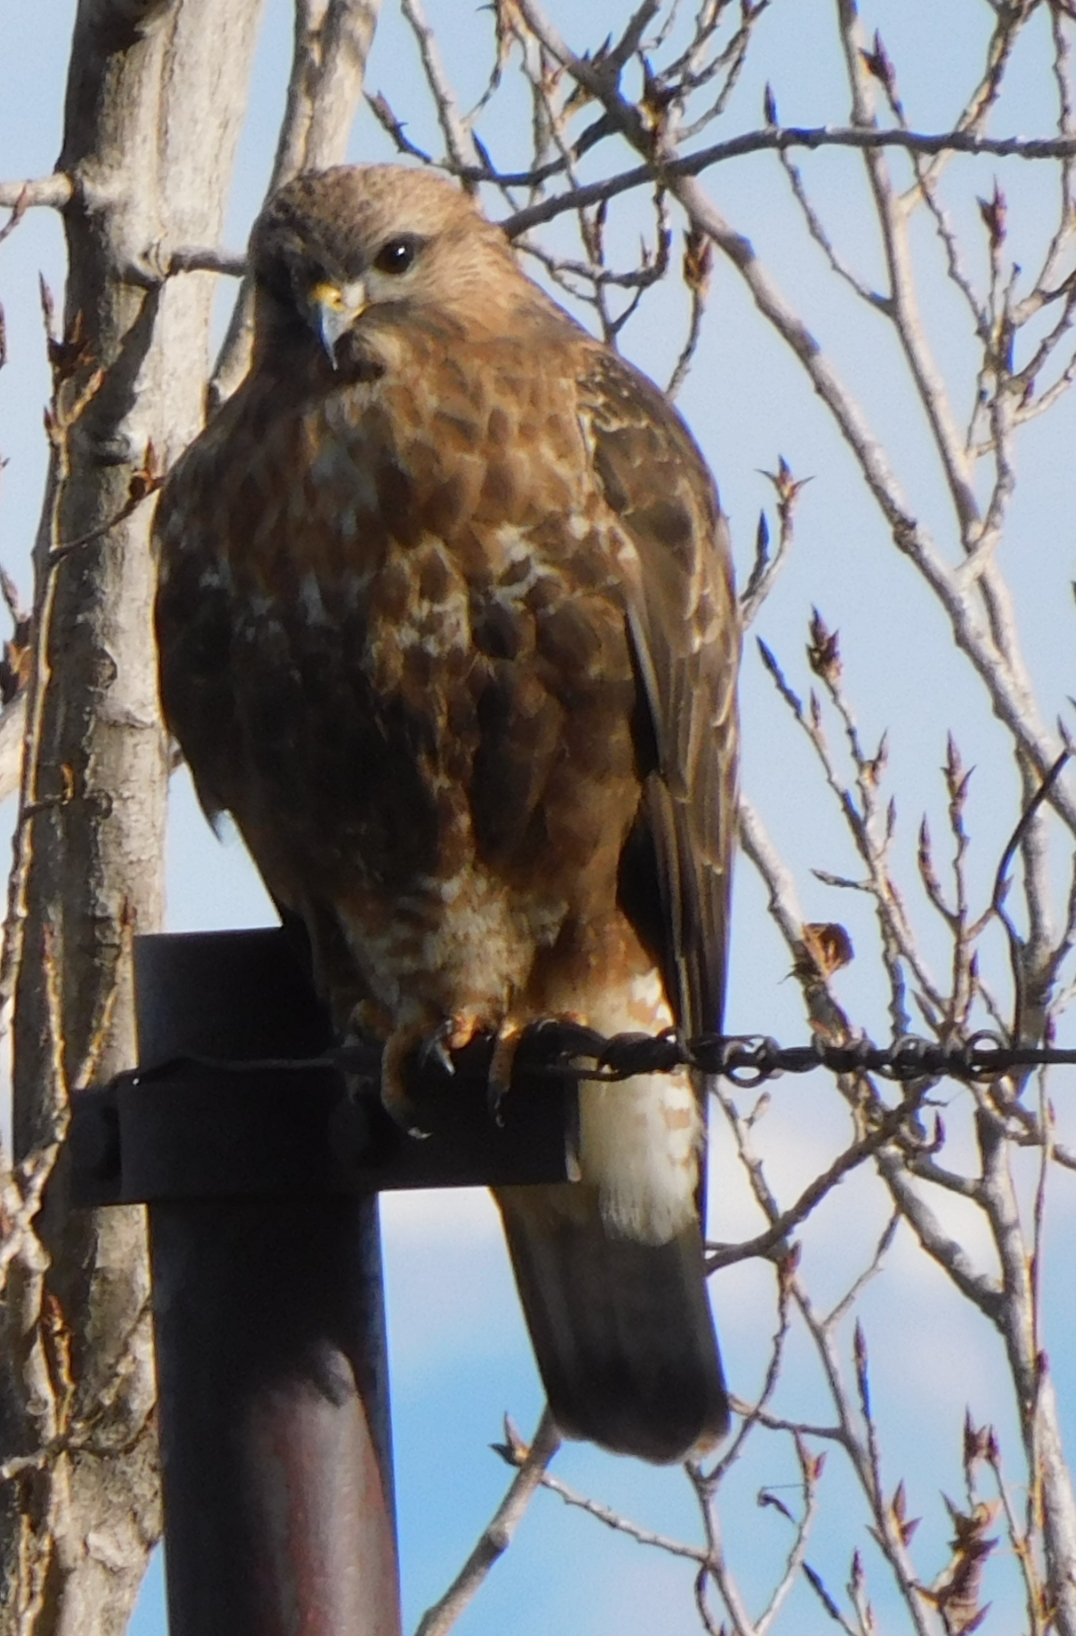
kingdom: Animalia
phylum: Chordata
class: Aves
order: Accipitriformes
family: Accipitridae
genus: Buteo
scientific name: Buteo refectus
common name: Himalayan buzzard
